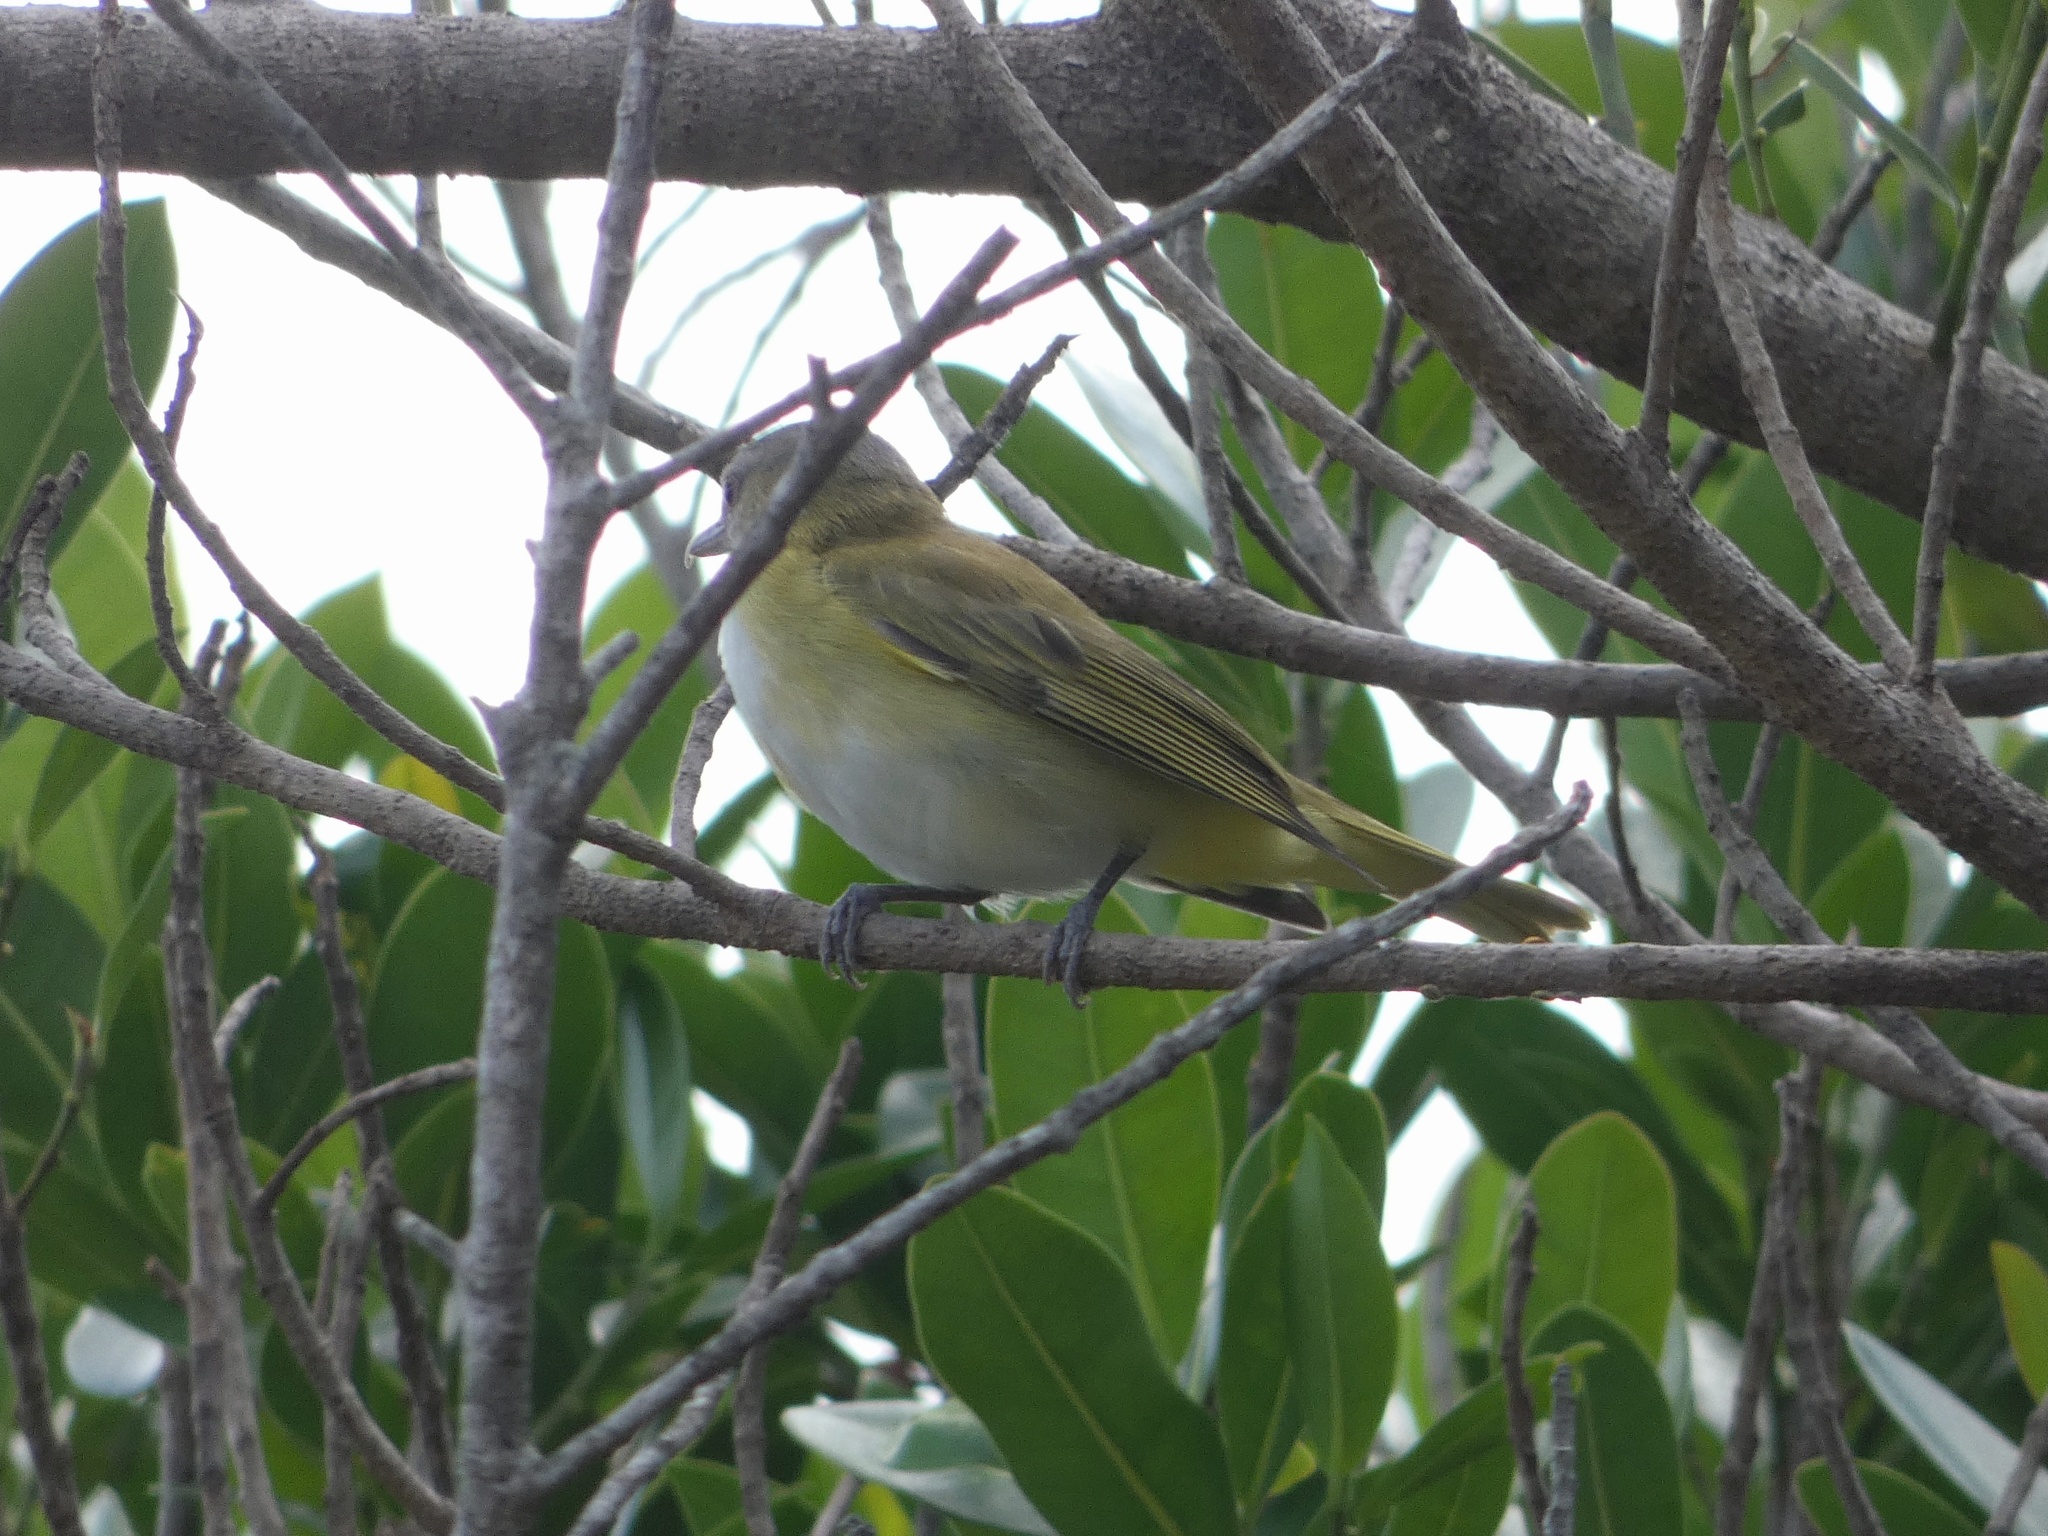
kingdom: Animalia
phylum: Chordata
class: Aves
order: Passeriformes
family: Vireonidae
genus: Vireo
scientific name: Vireo flavoviridis
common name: Yellow-green vireo
